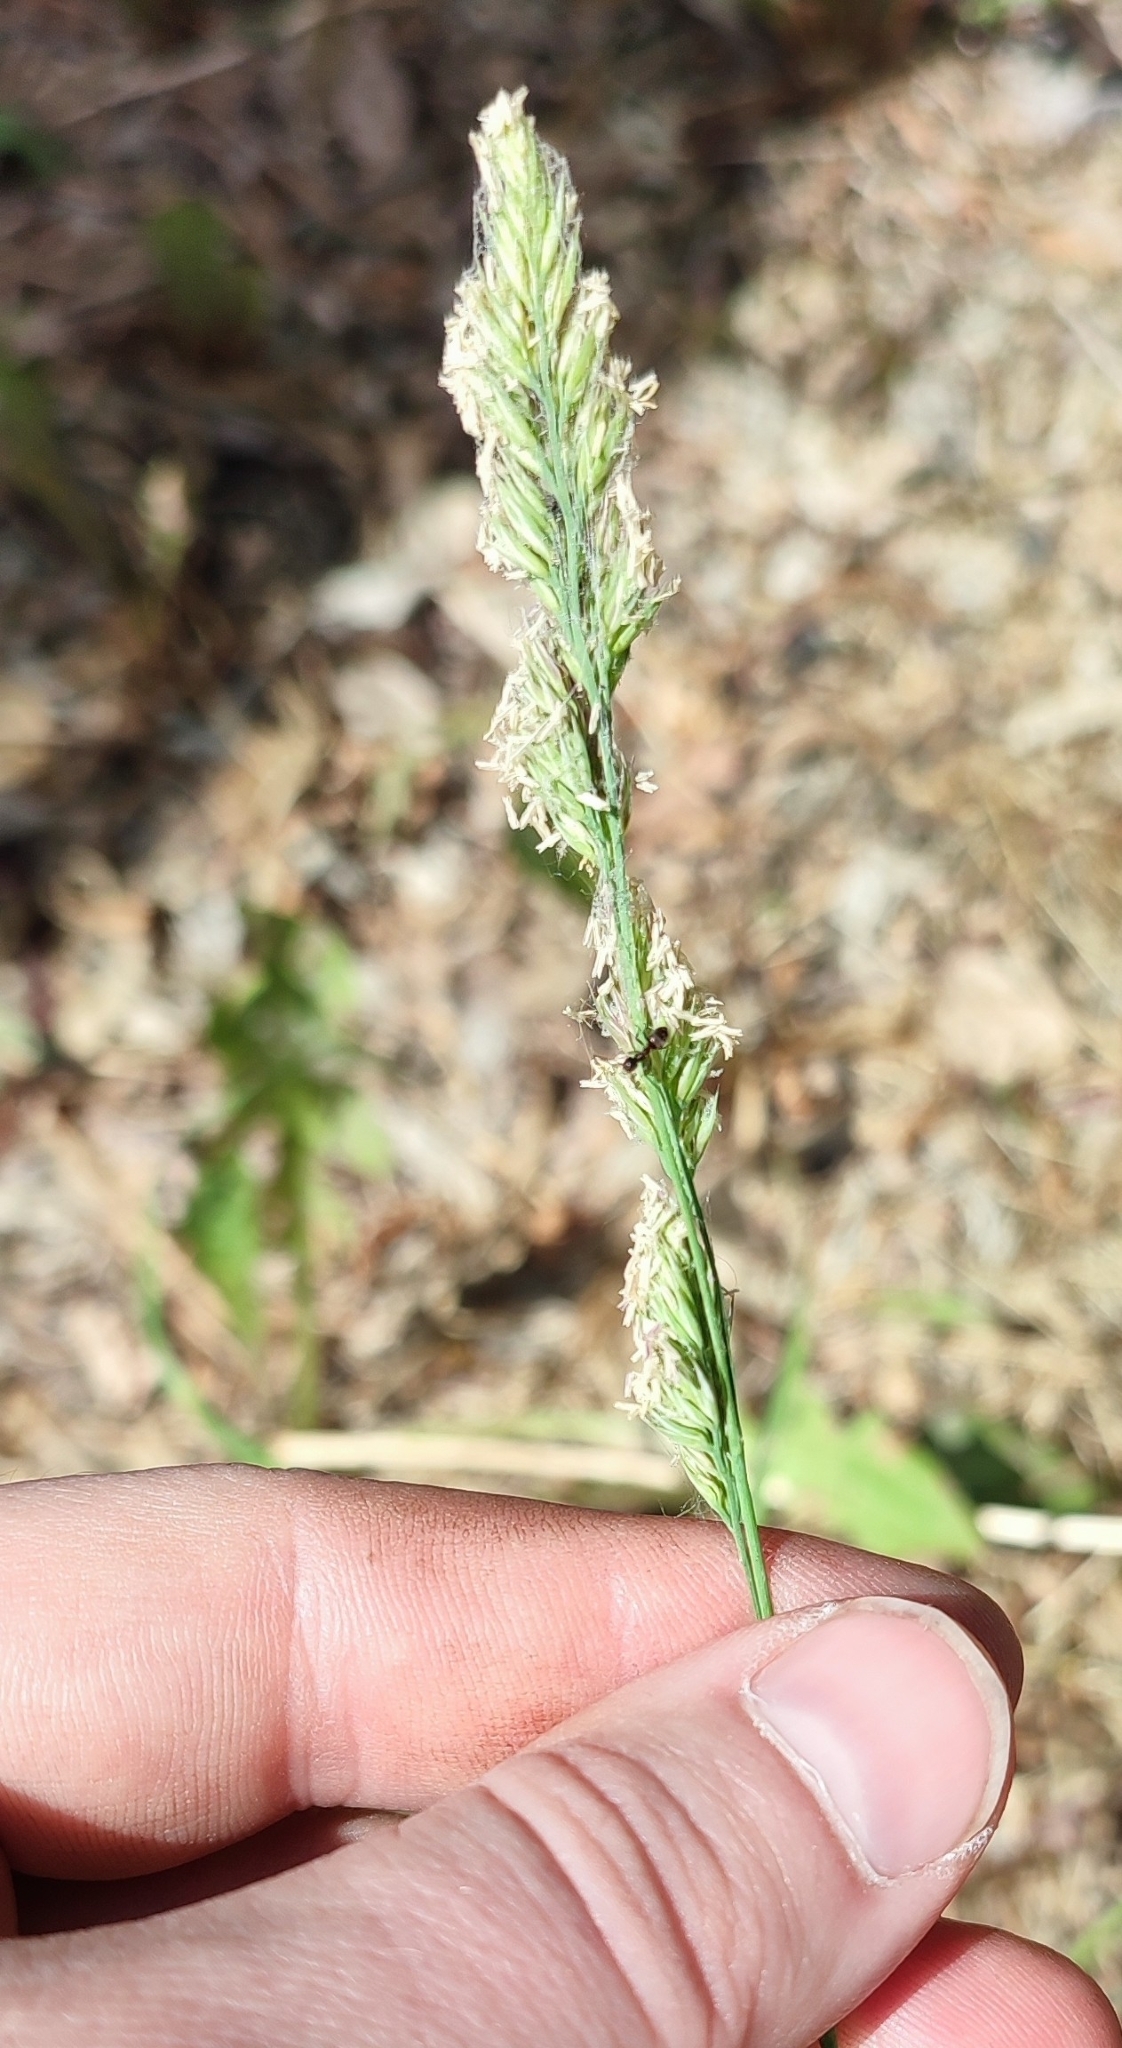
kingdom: Plantae
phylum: Tracheophyta
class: Liliopsida
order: Poales
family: Poaceae
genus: Dactylis
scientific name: Dactylis glomerata
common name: Orchardgrass
